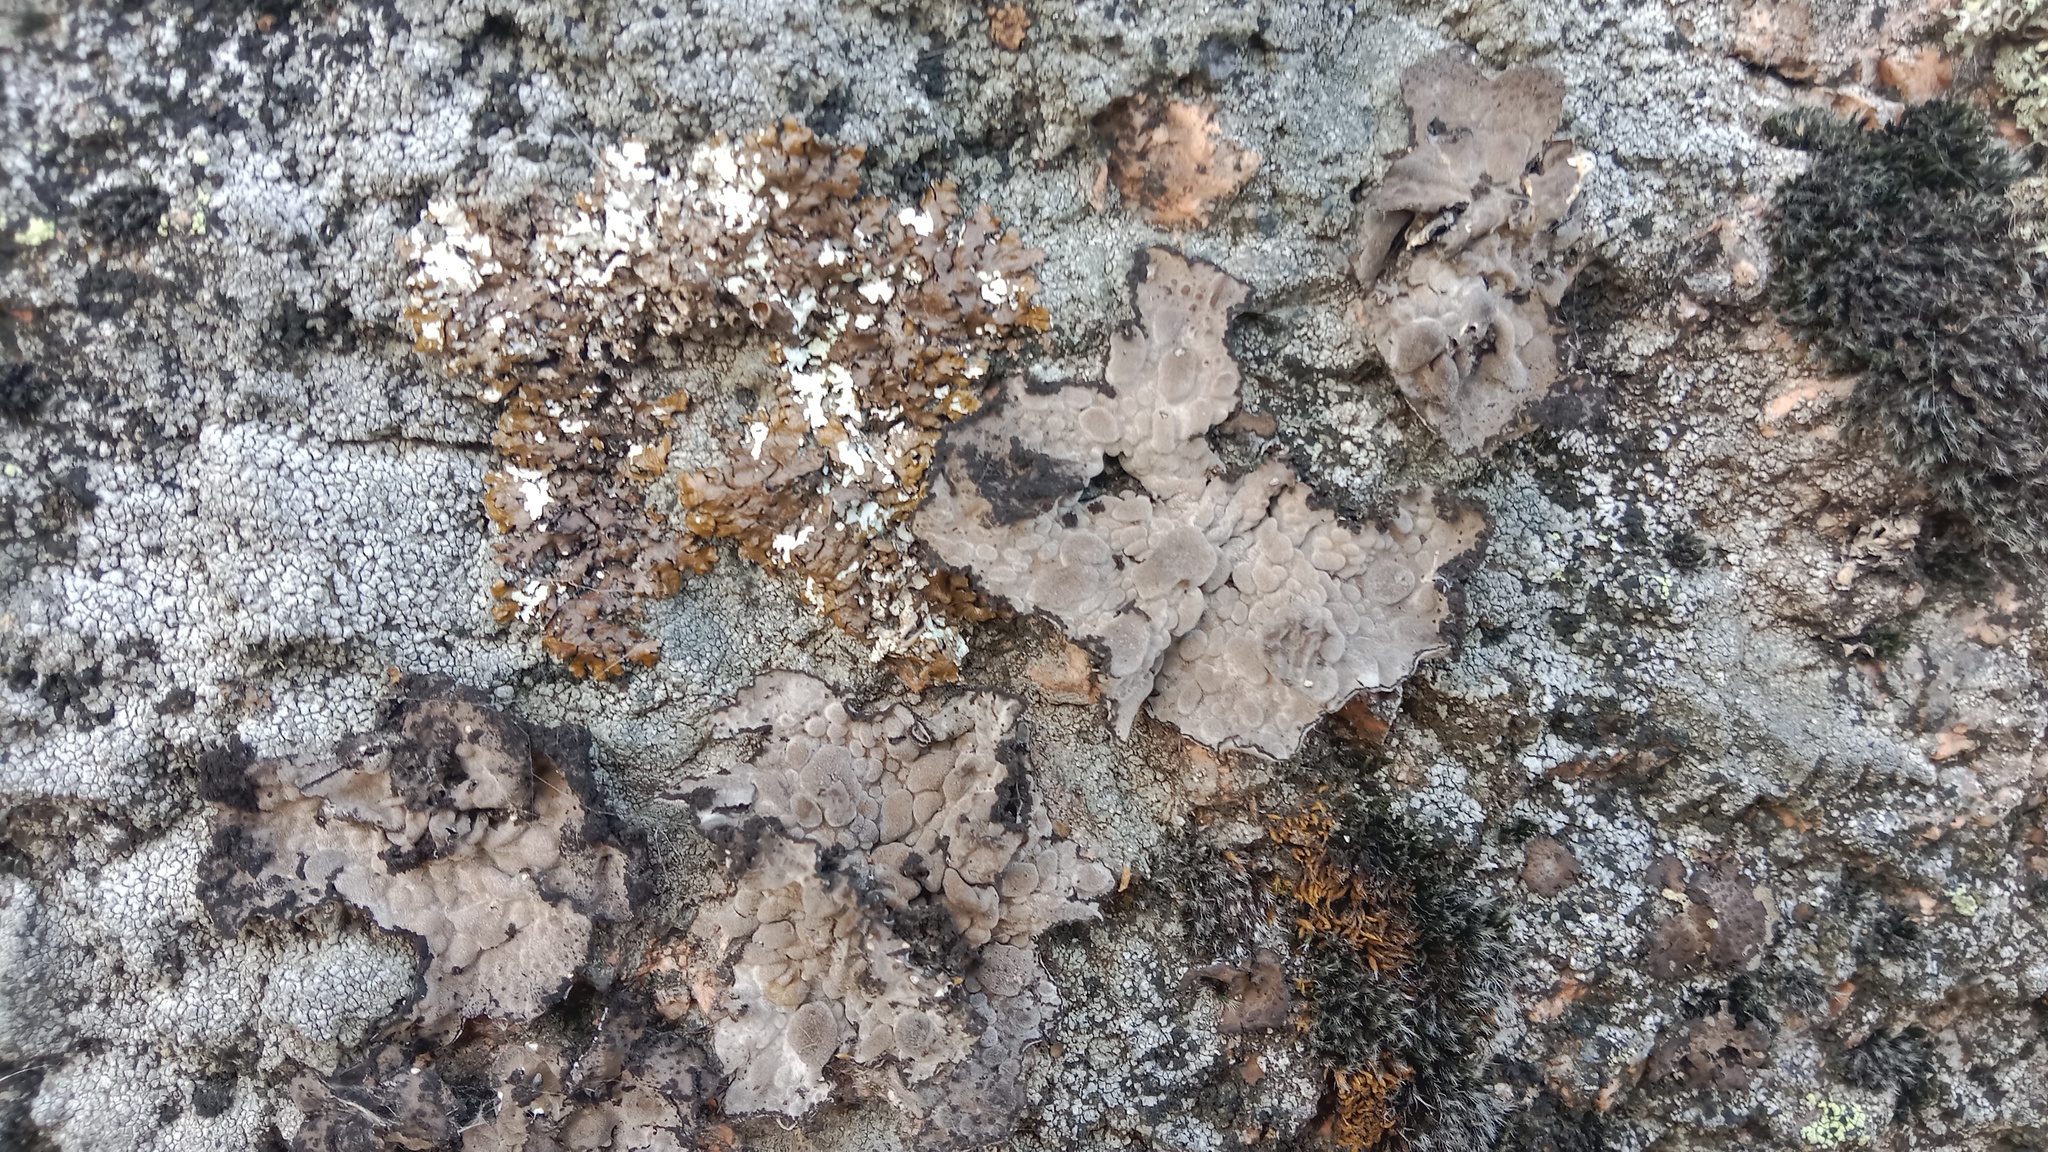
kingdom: Fungi
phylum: Ascomycota
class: Lecanoromycetes
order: Umbilicariales
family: Umbilicariaceae
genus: Lasallia
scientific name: Lasallia pustulata
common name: Blistered toadskin lichen
